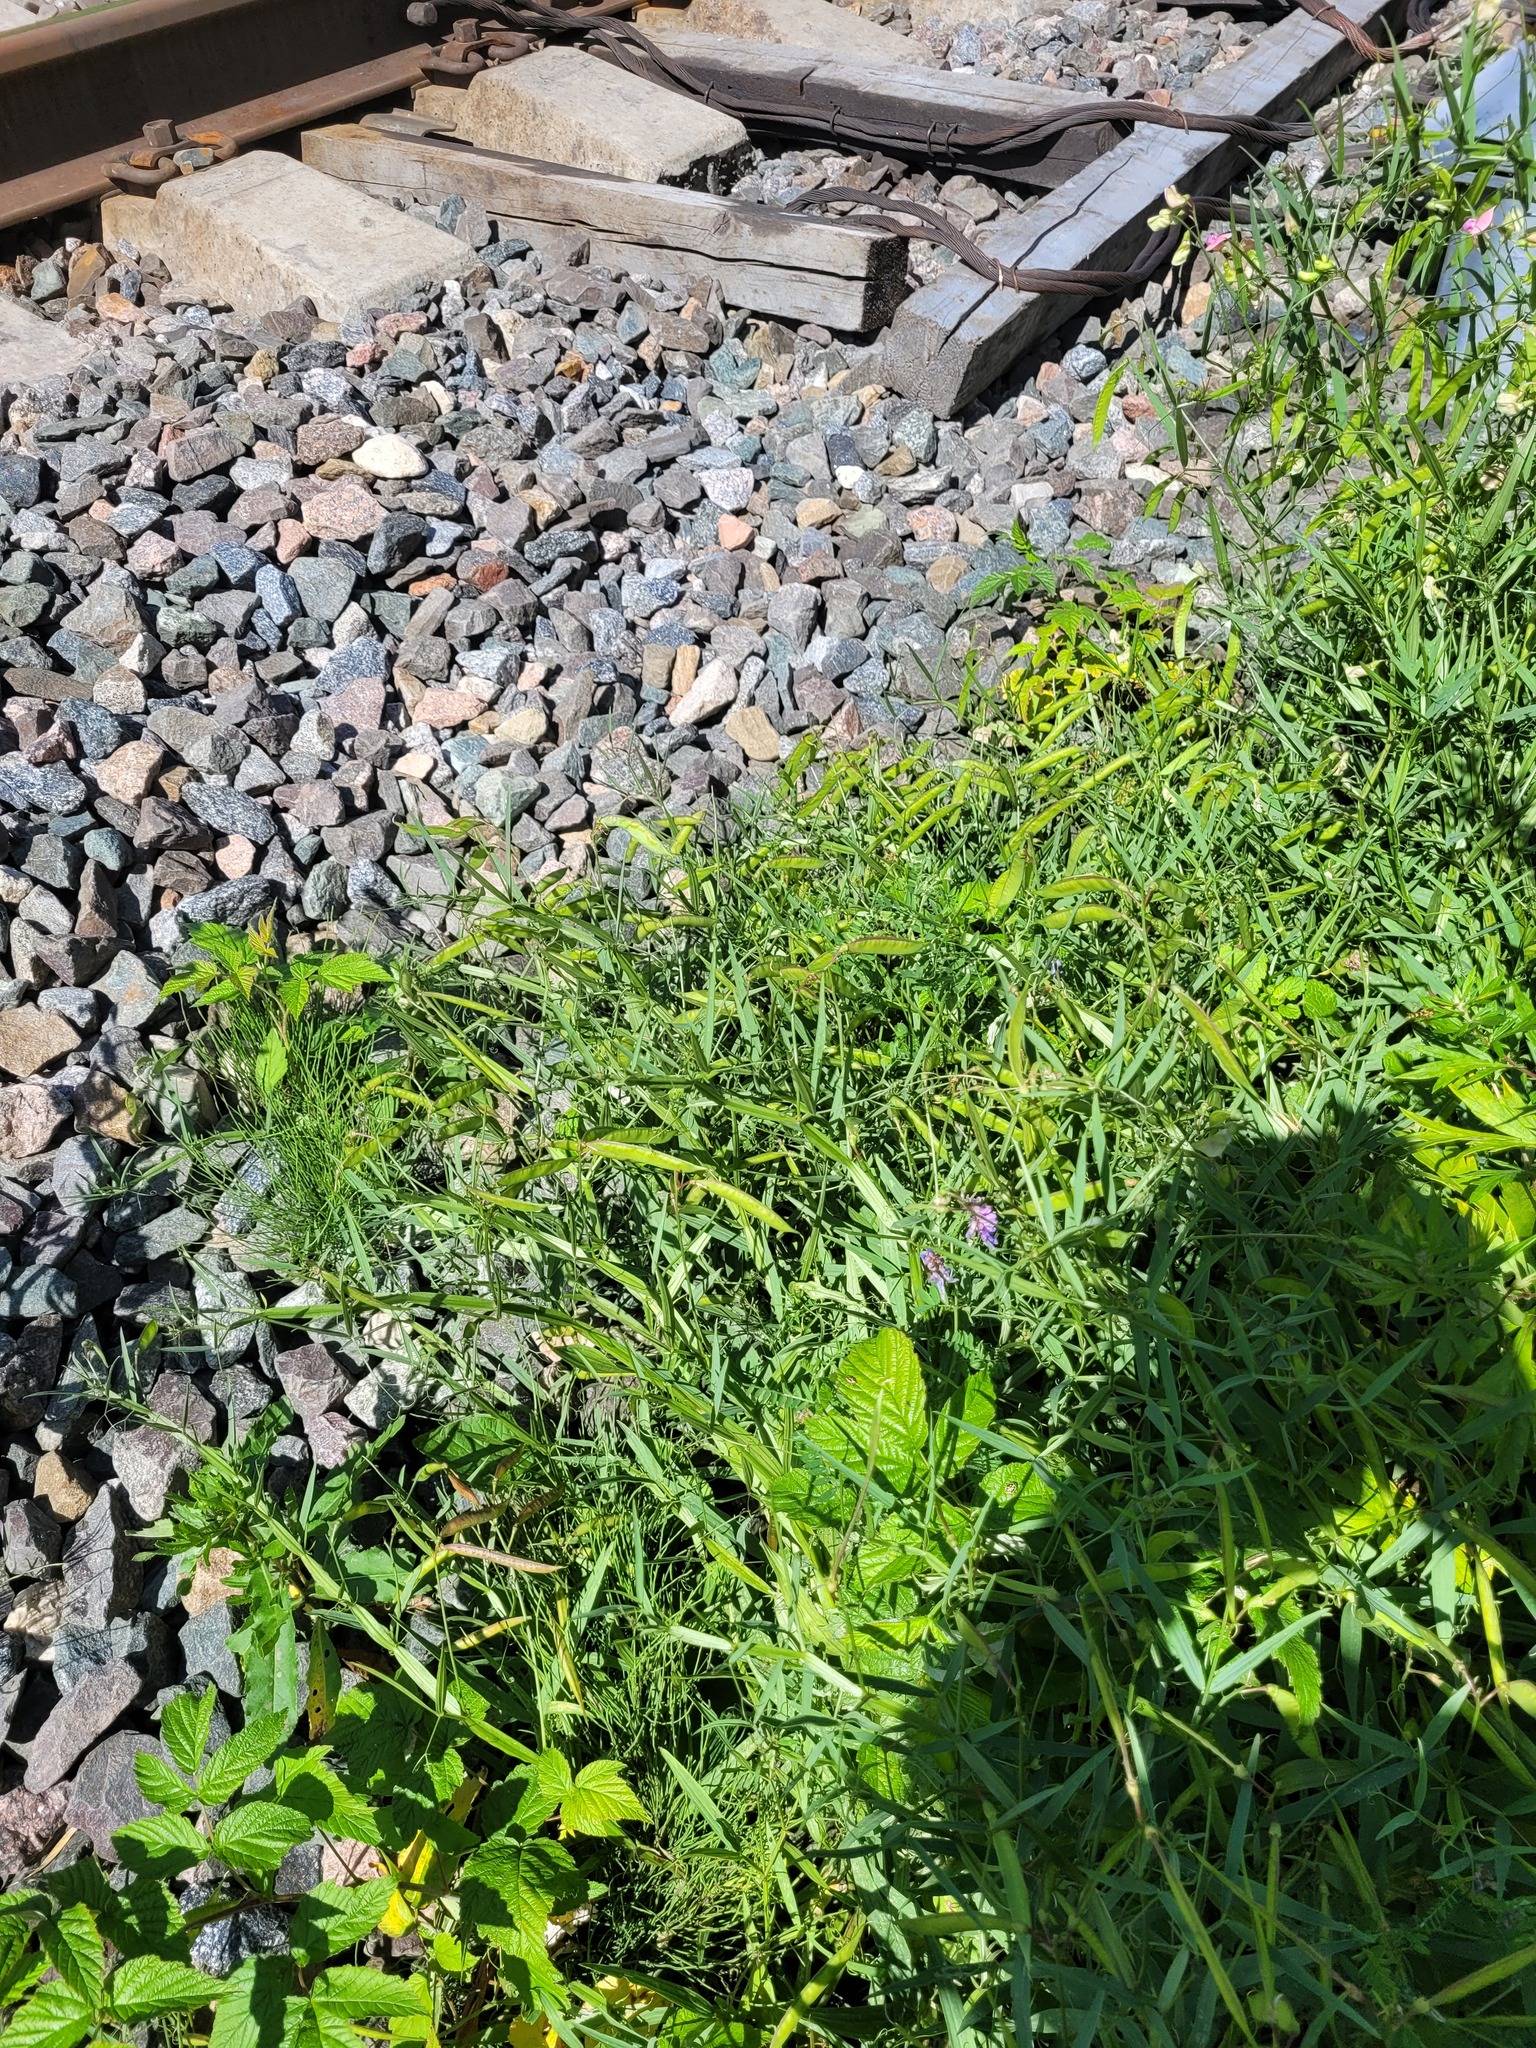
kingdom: Plantae
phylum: Tracheophyta
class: Magnoliopsida
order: Fabales
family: Fabaceae
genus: Lathyrus
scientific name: Lathyrus sylvestris
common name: Flat pea
